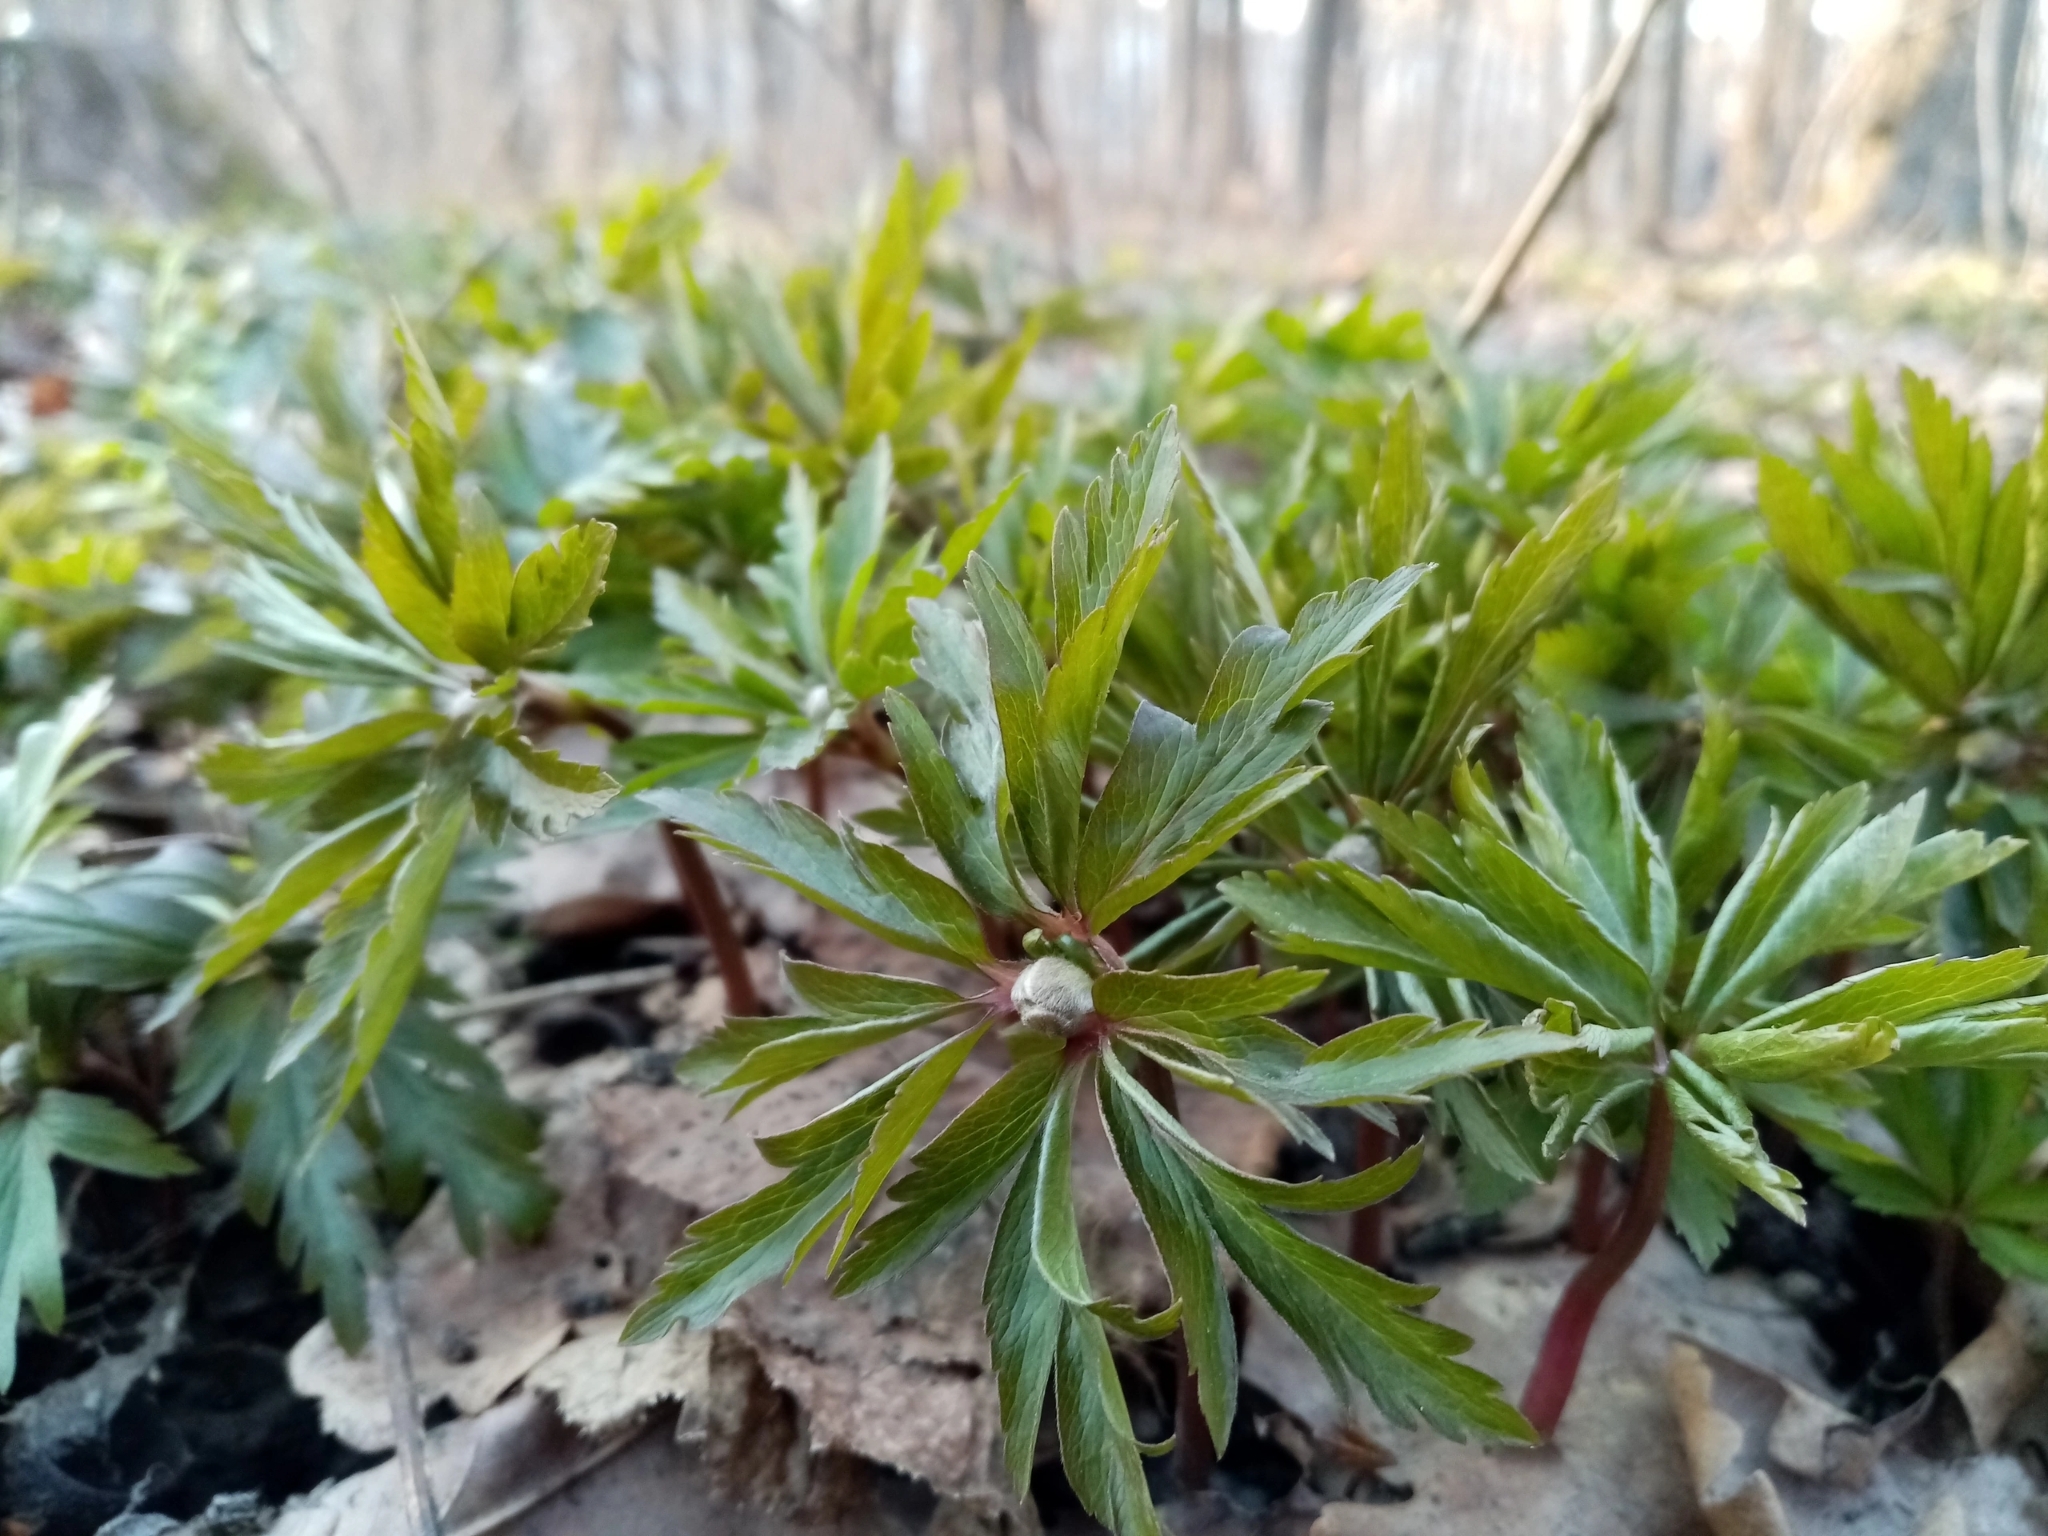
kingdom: Plantae
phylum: Tracheophyta
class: Magnoliopsida
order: Ranunculales
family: Ranunculaceae
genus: Anemone
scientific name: Anemone ranunculoides
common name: Yellow anemone
